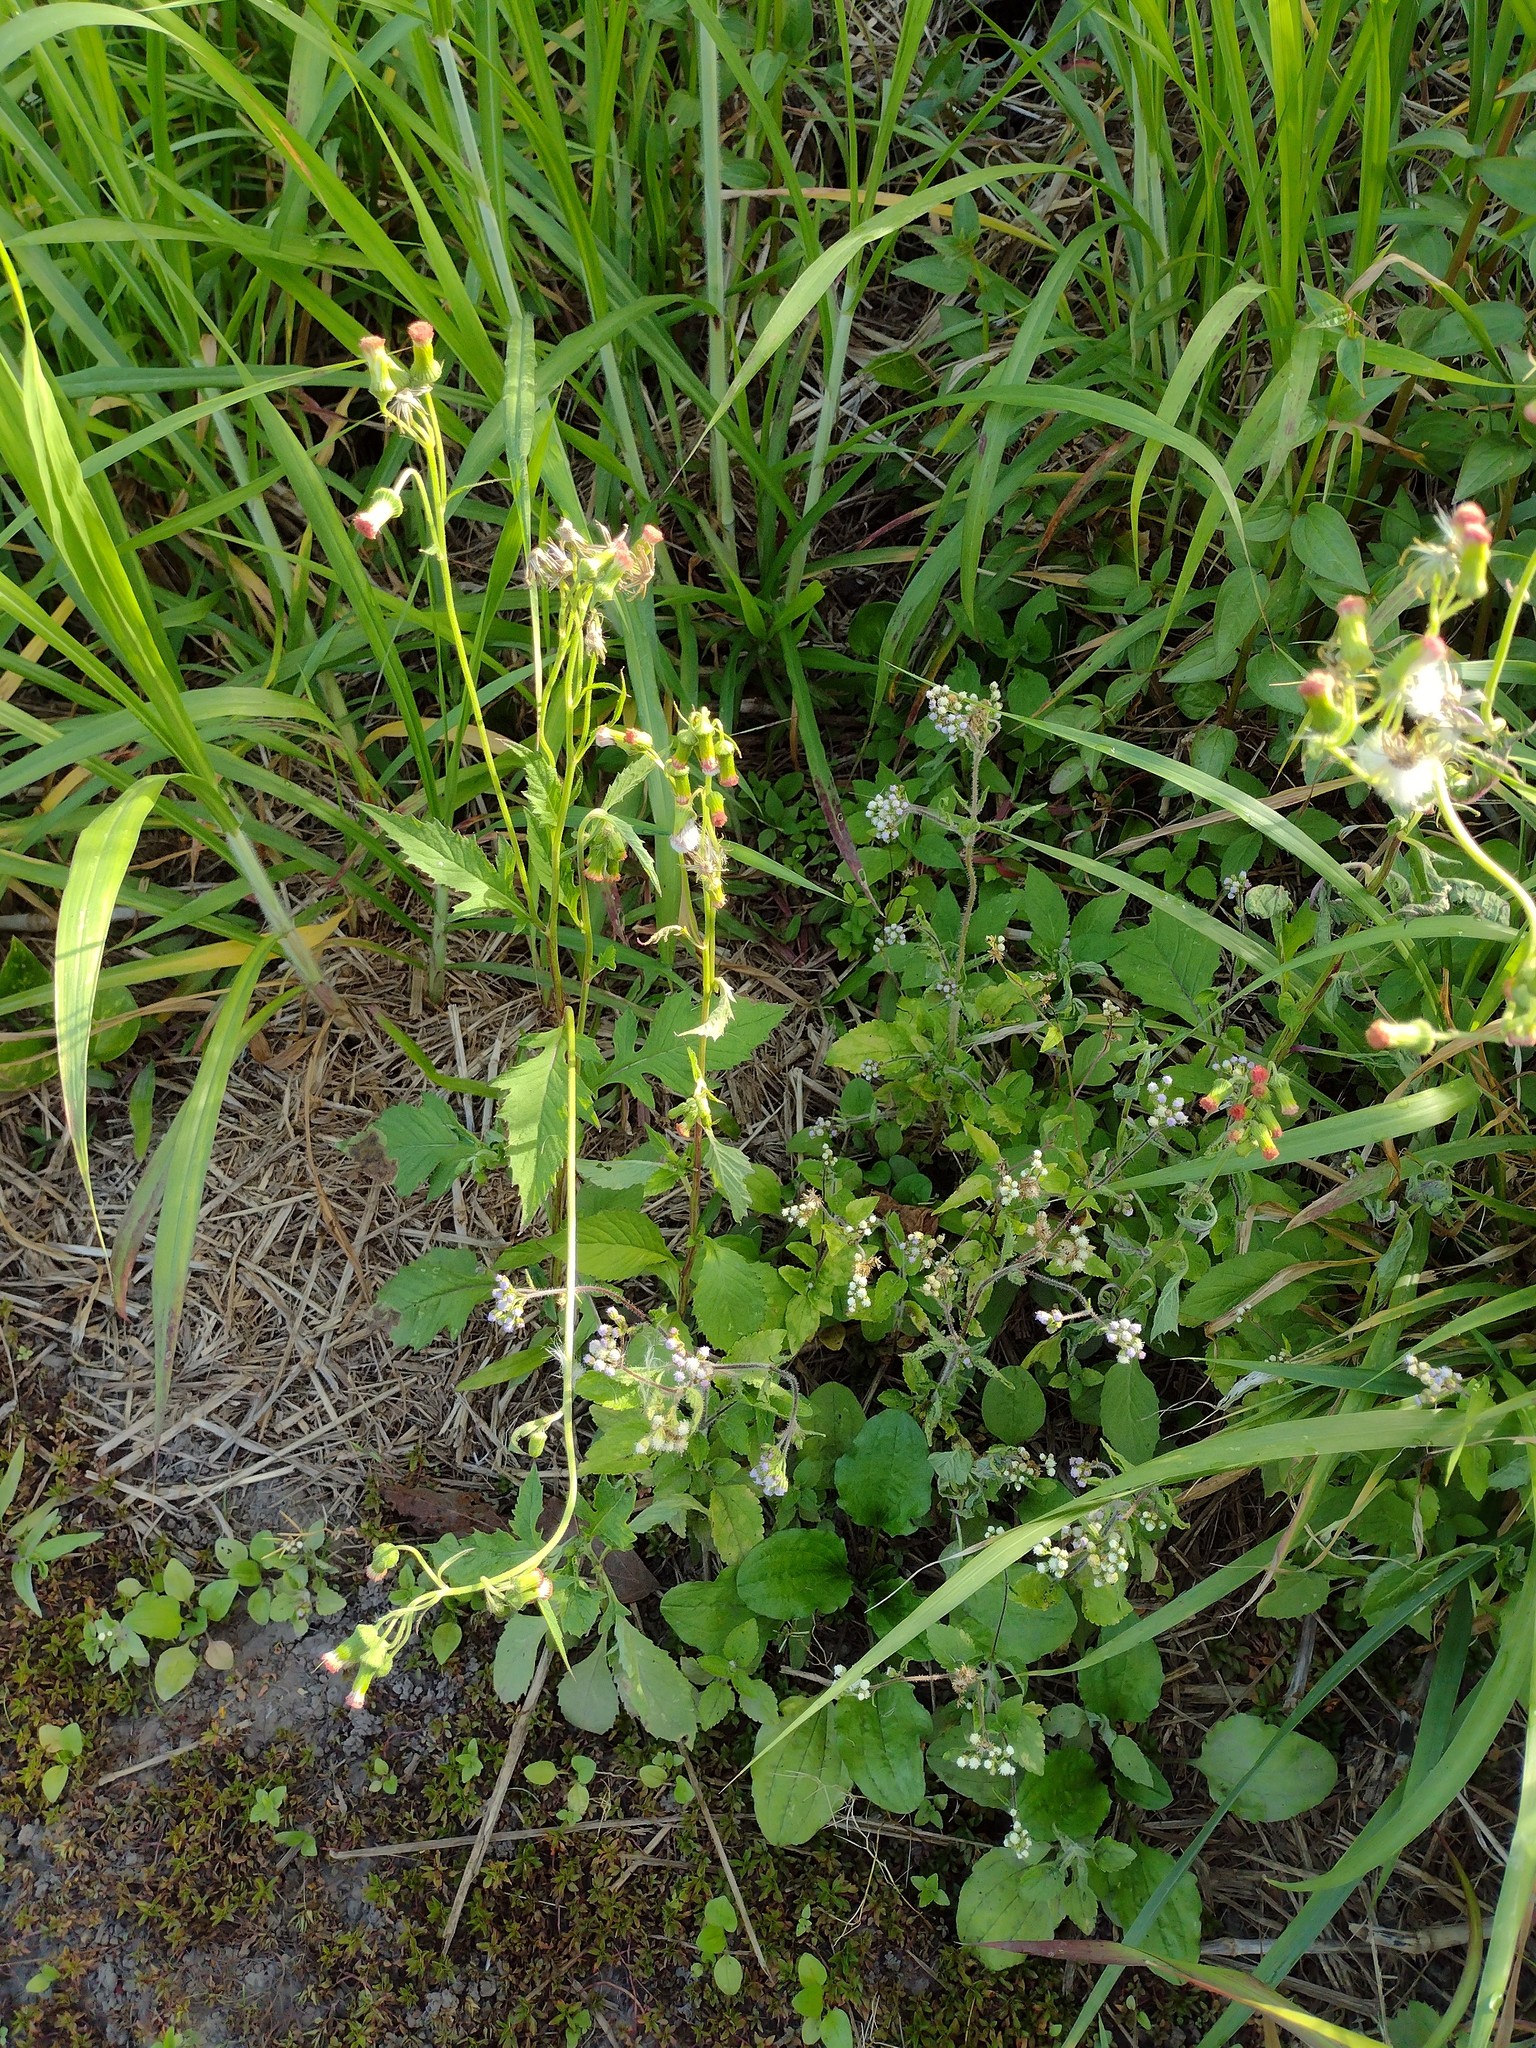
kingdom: Plantae
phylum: Tracheophyta
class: Magnoliopsida
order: Asterales
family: Asteraceae
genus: Crassocephalum
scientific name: Crassocephalum crepidioides
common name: Redflower ragleaf
